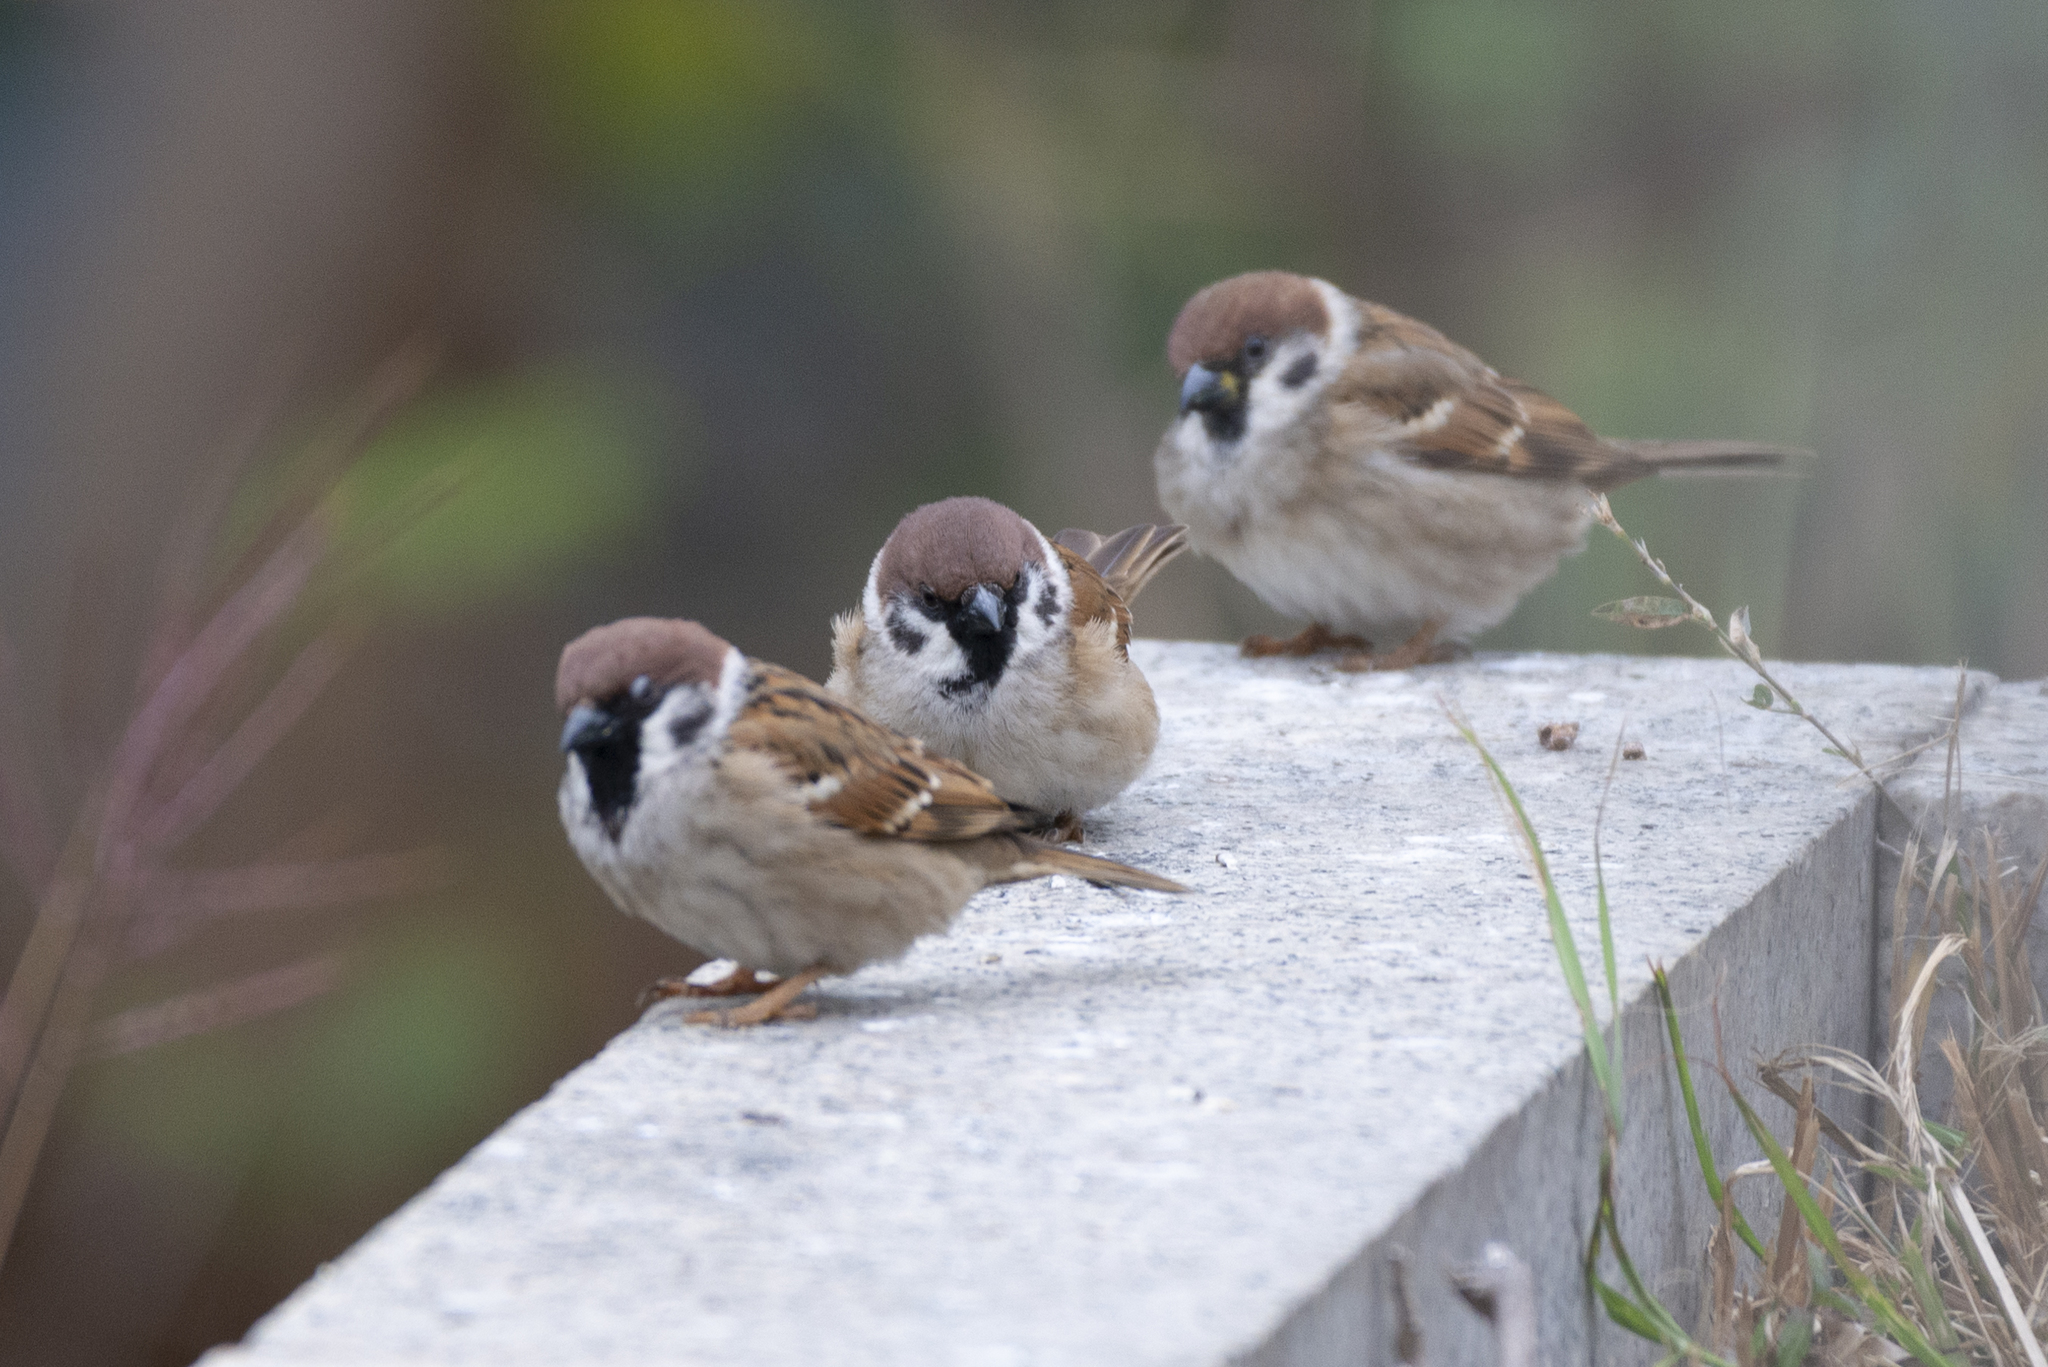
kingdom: Animalia
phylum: Chordata
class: Aves
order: Passeriformes
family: Passeridae
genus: Passer
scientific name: Passer montanus
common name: Eurasian tree sparrow
